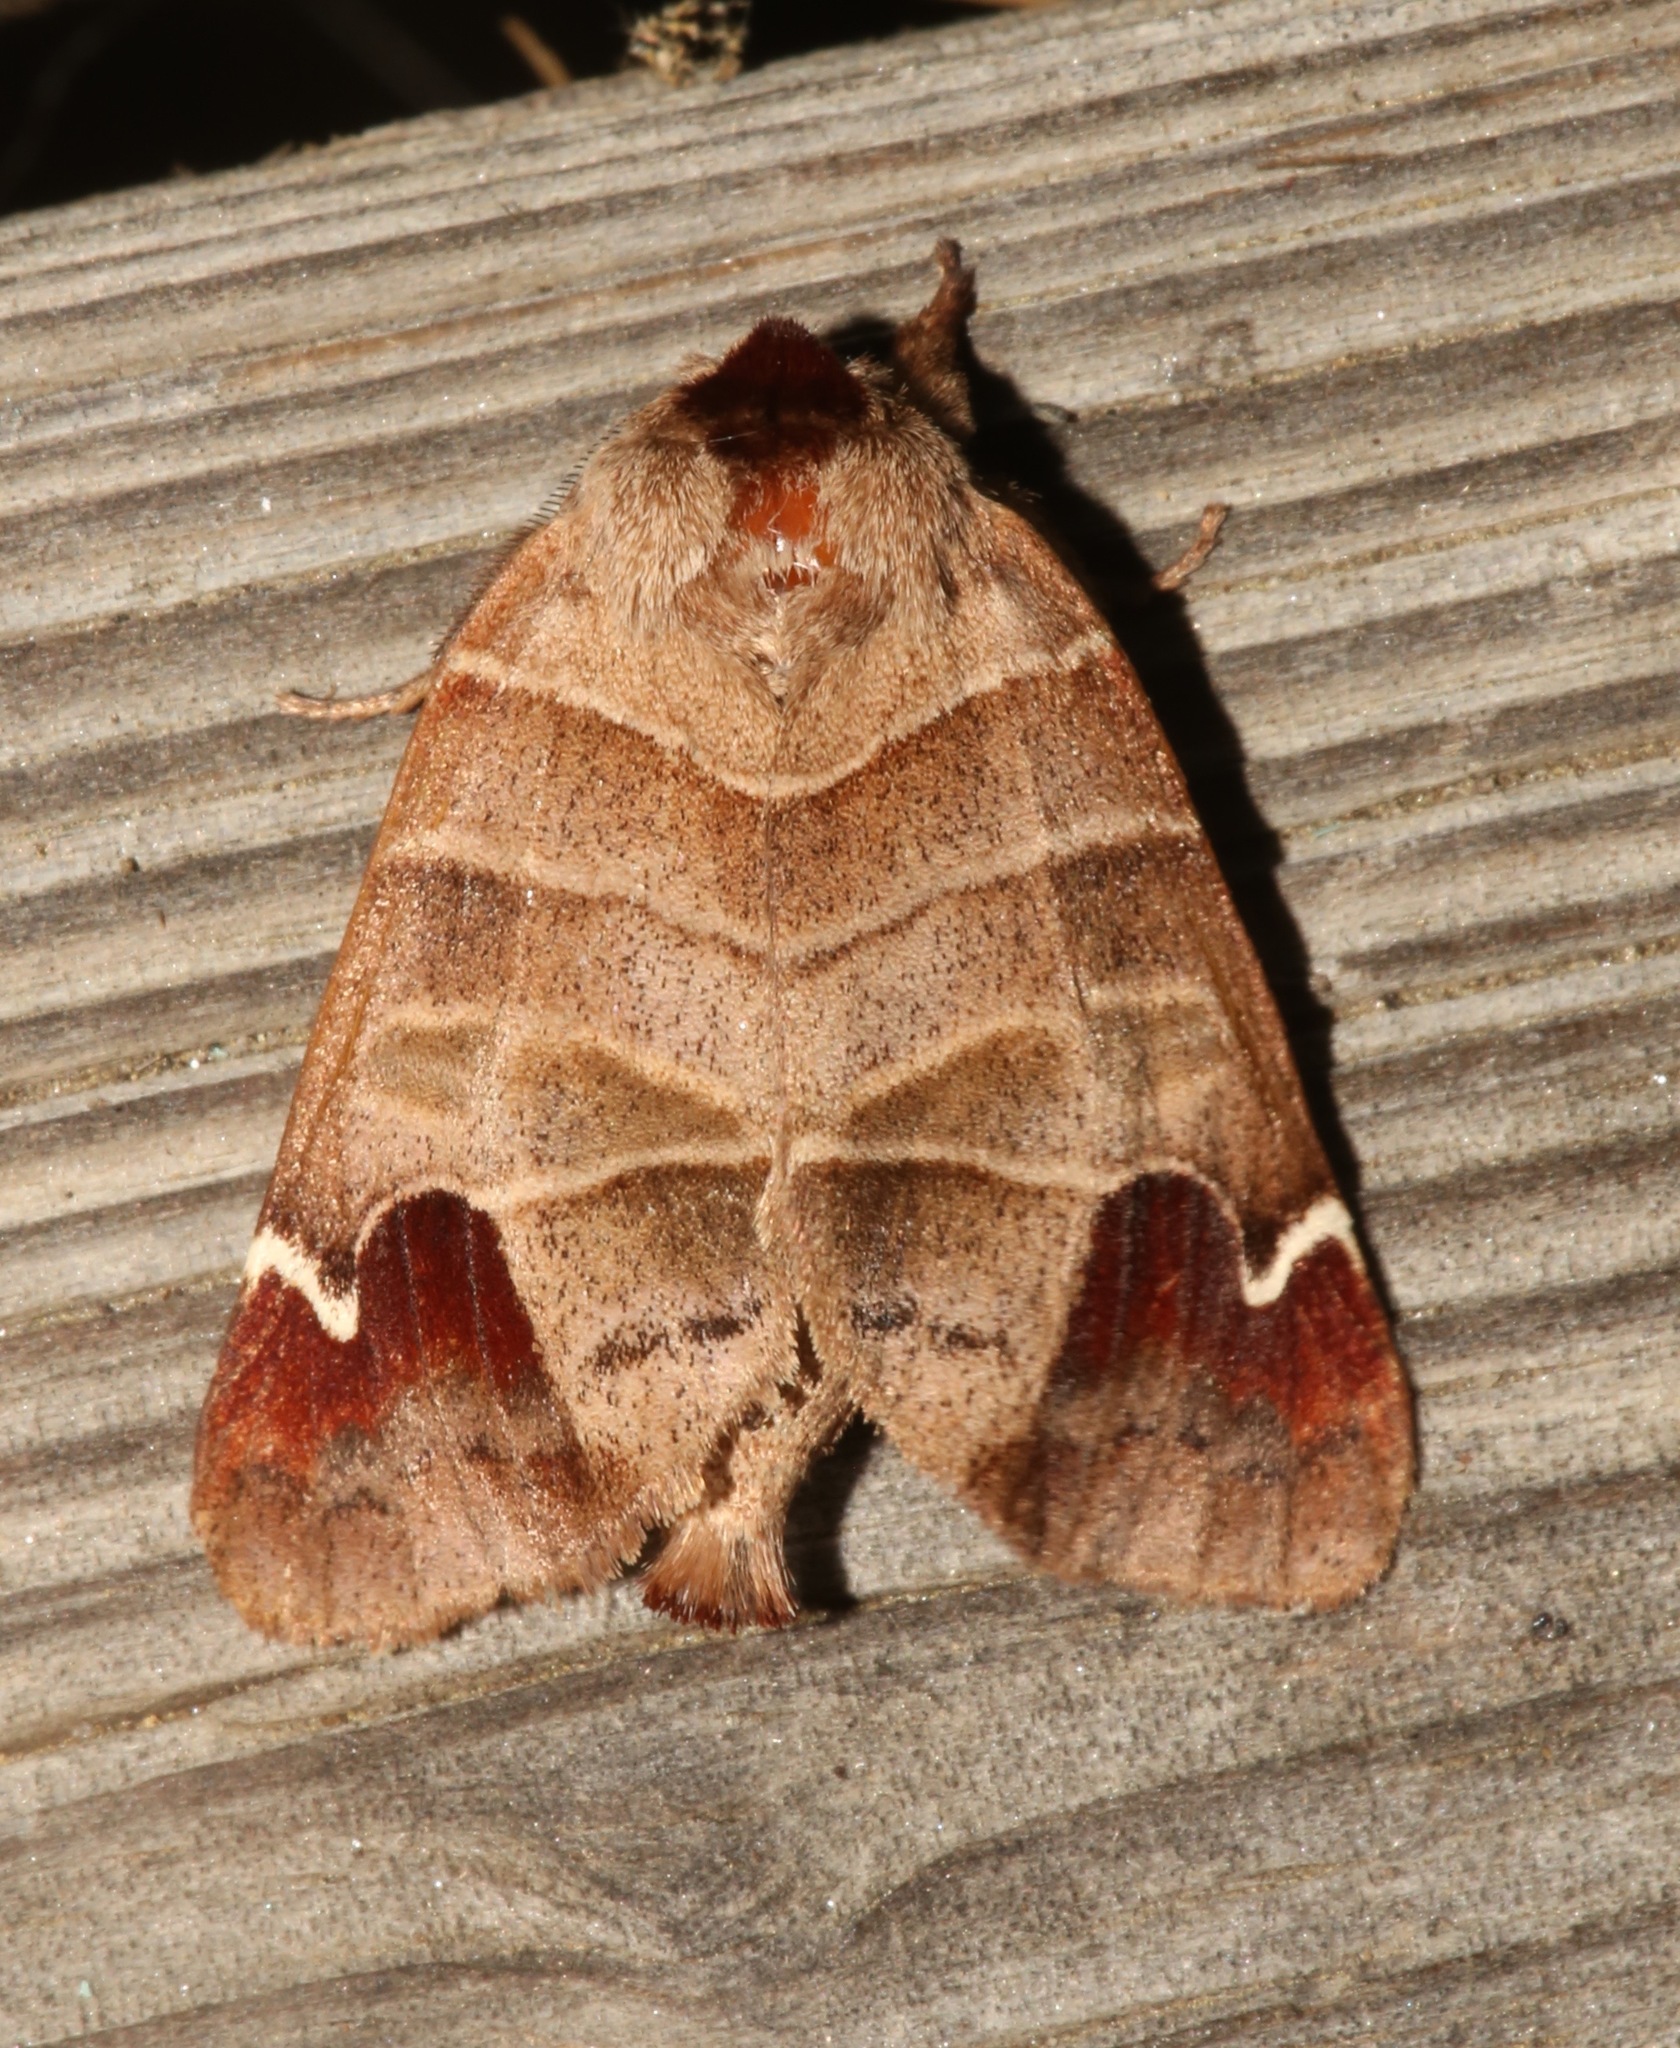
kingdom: Animalia
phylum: Arthropoda
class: Insecta
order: Lepidoptera
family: Notodontidae
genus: Clostera
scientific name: Clostera albosigma
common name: Sigmoid prominent
